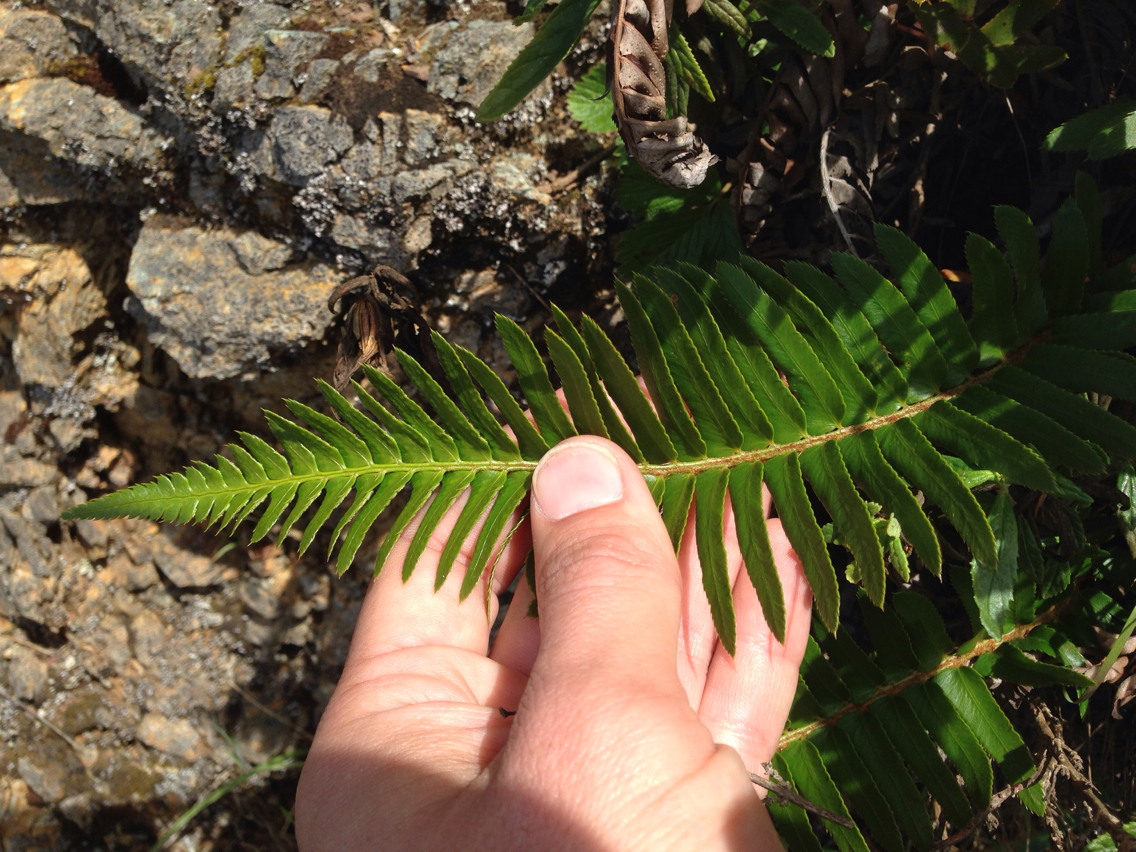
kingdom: Plantae
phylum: Tracheophyta
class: Polypodiopsida
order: Polypodiales
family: Dryopteridaceae
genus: Polystichum
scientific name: Polystichum munitum
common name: Western sword-fern
